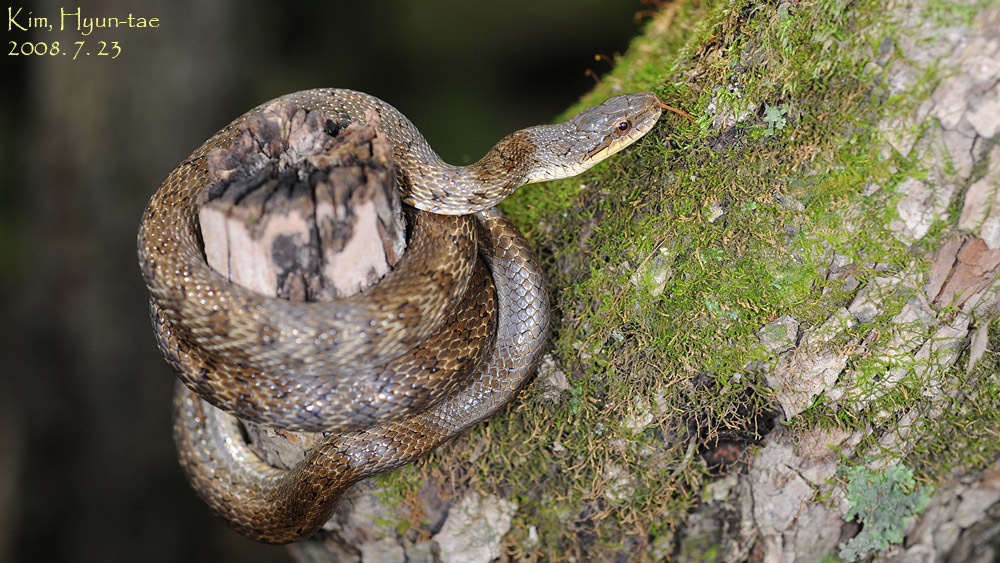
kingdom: Animalia
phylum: Chordata
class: Squamata
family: Colubridae
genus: Elaphe
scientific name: Elaphe dione
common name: Dione ratsnake
